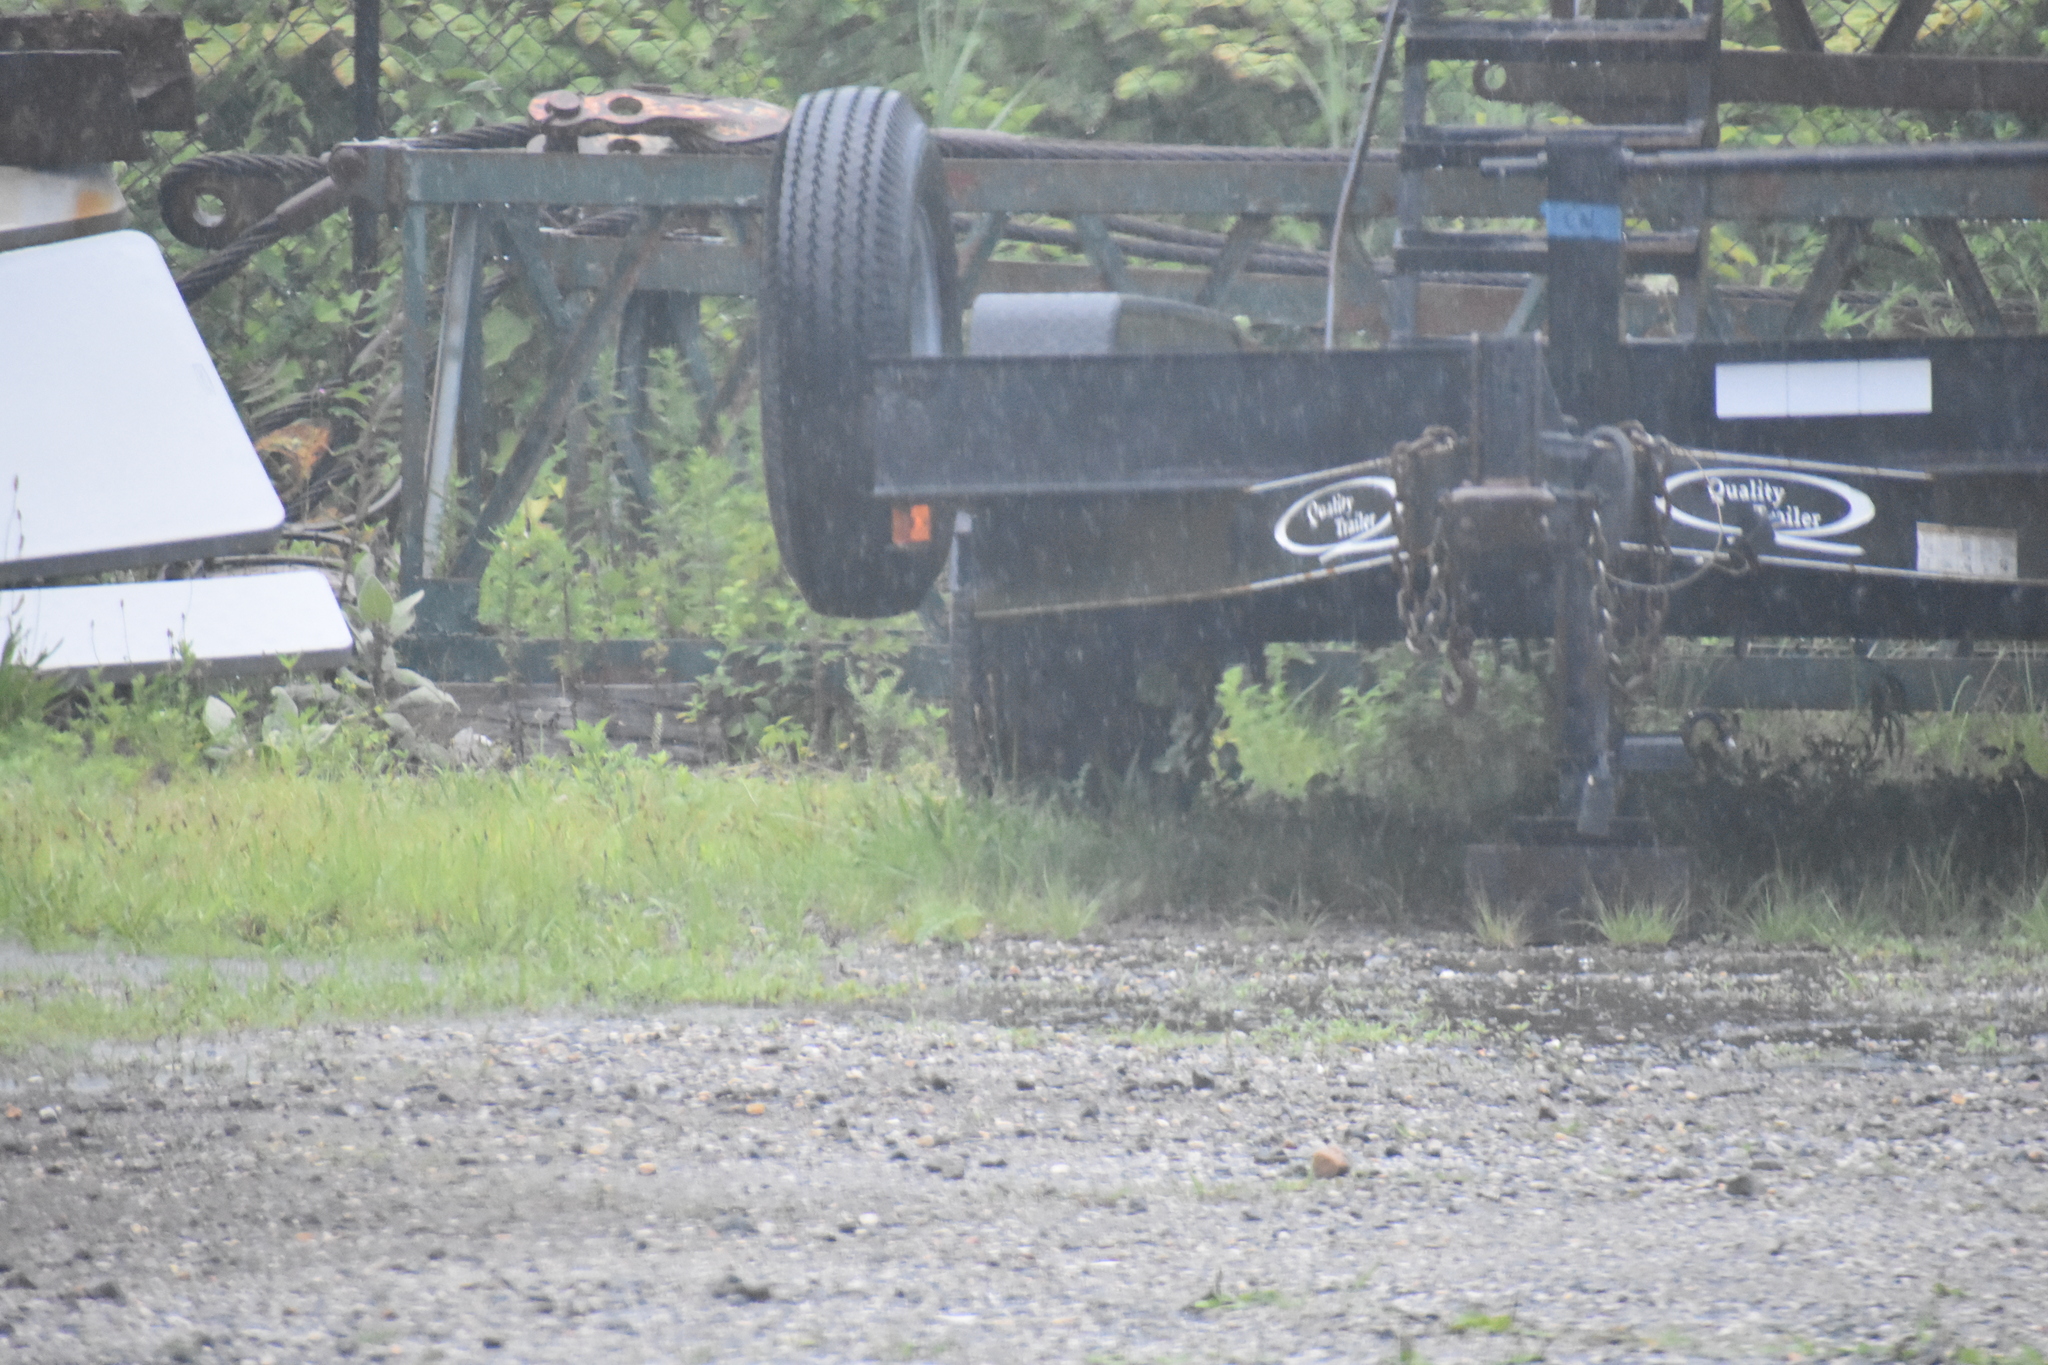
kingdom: Animalia
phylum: Chordata
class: Mammalia
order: Carnivora
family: Mustelidae
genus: Mustela
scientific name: Mustela
